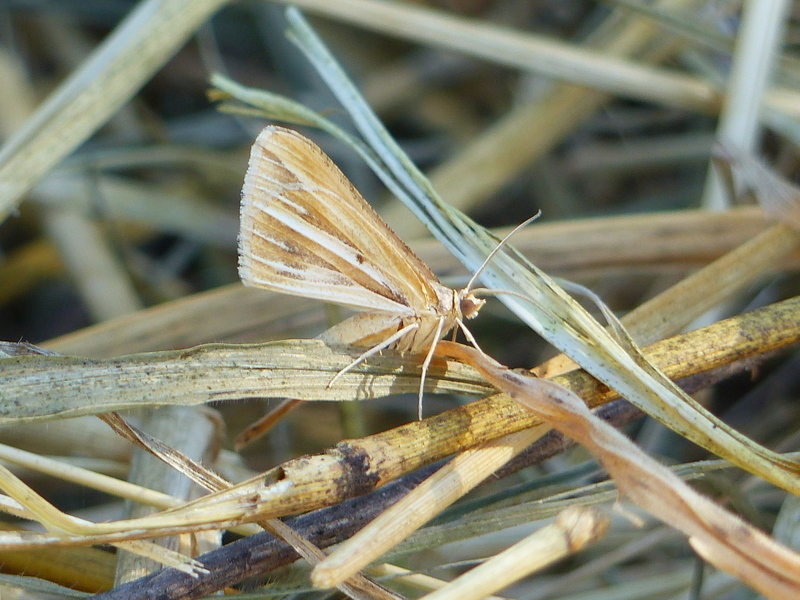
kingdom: Animalia
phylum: Arthropoda
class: Insecta
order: Lepidoptera
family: Geometridae
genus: Chiasmia
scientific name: Chiasmia turbulentata
